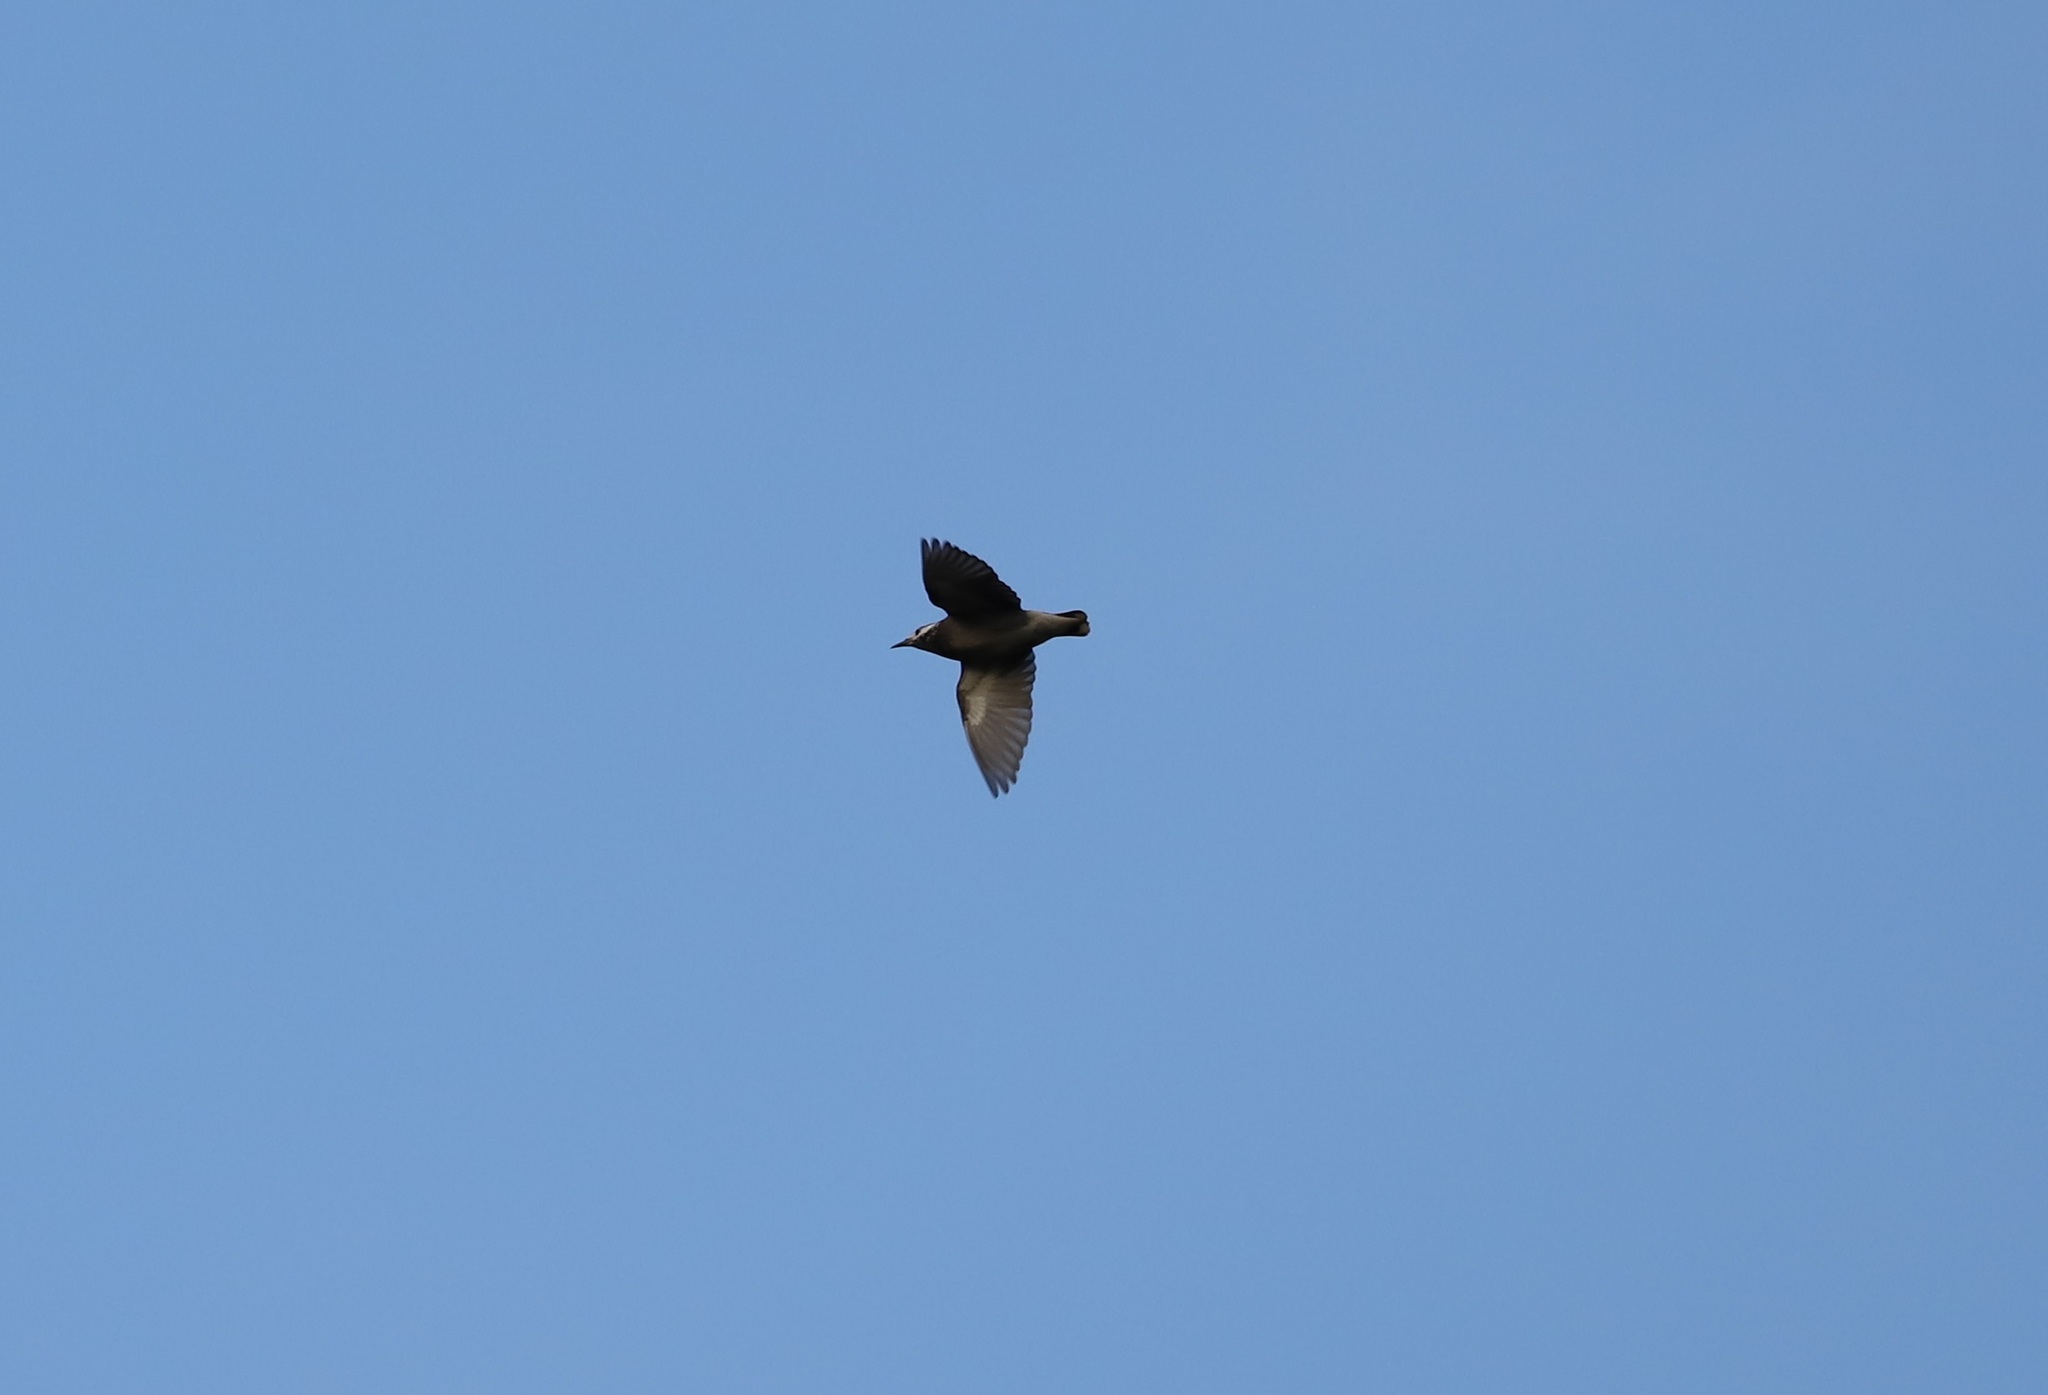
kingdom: Animalia
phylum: Chordata
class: Aves
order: Passeriformes
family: Sturnidae
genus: Spodiopsar
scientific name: Spodiopsar cineraceus
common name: White-cheeked starling
